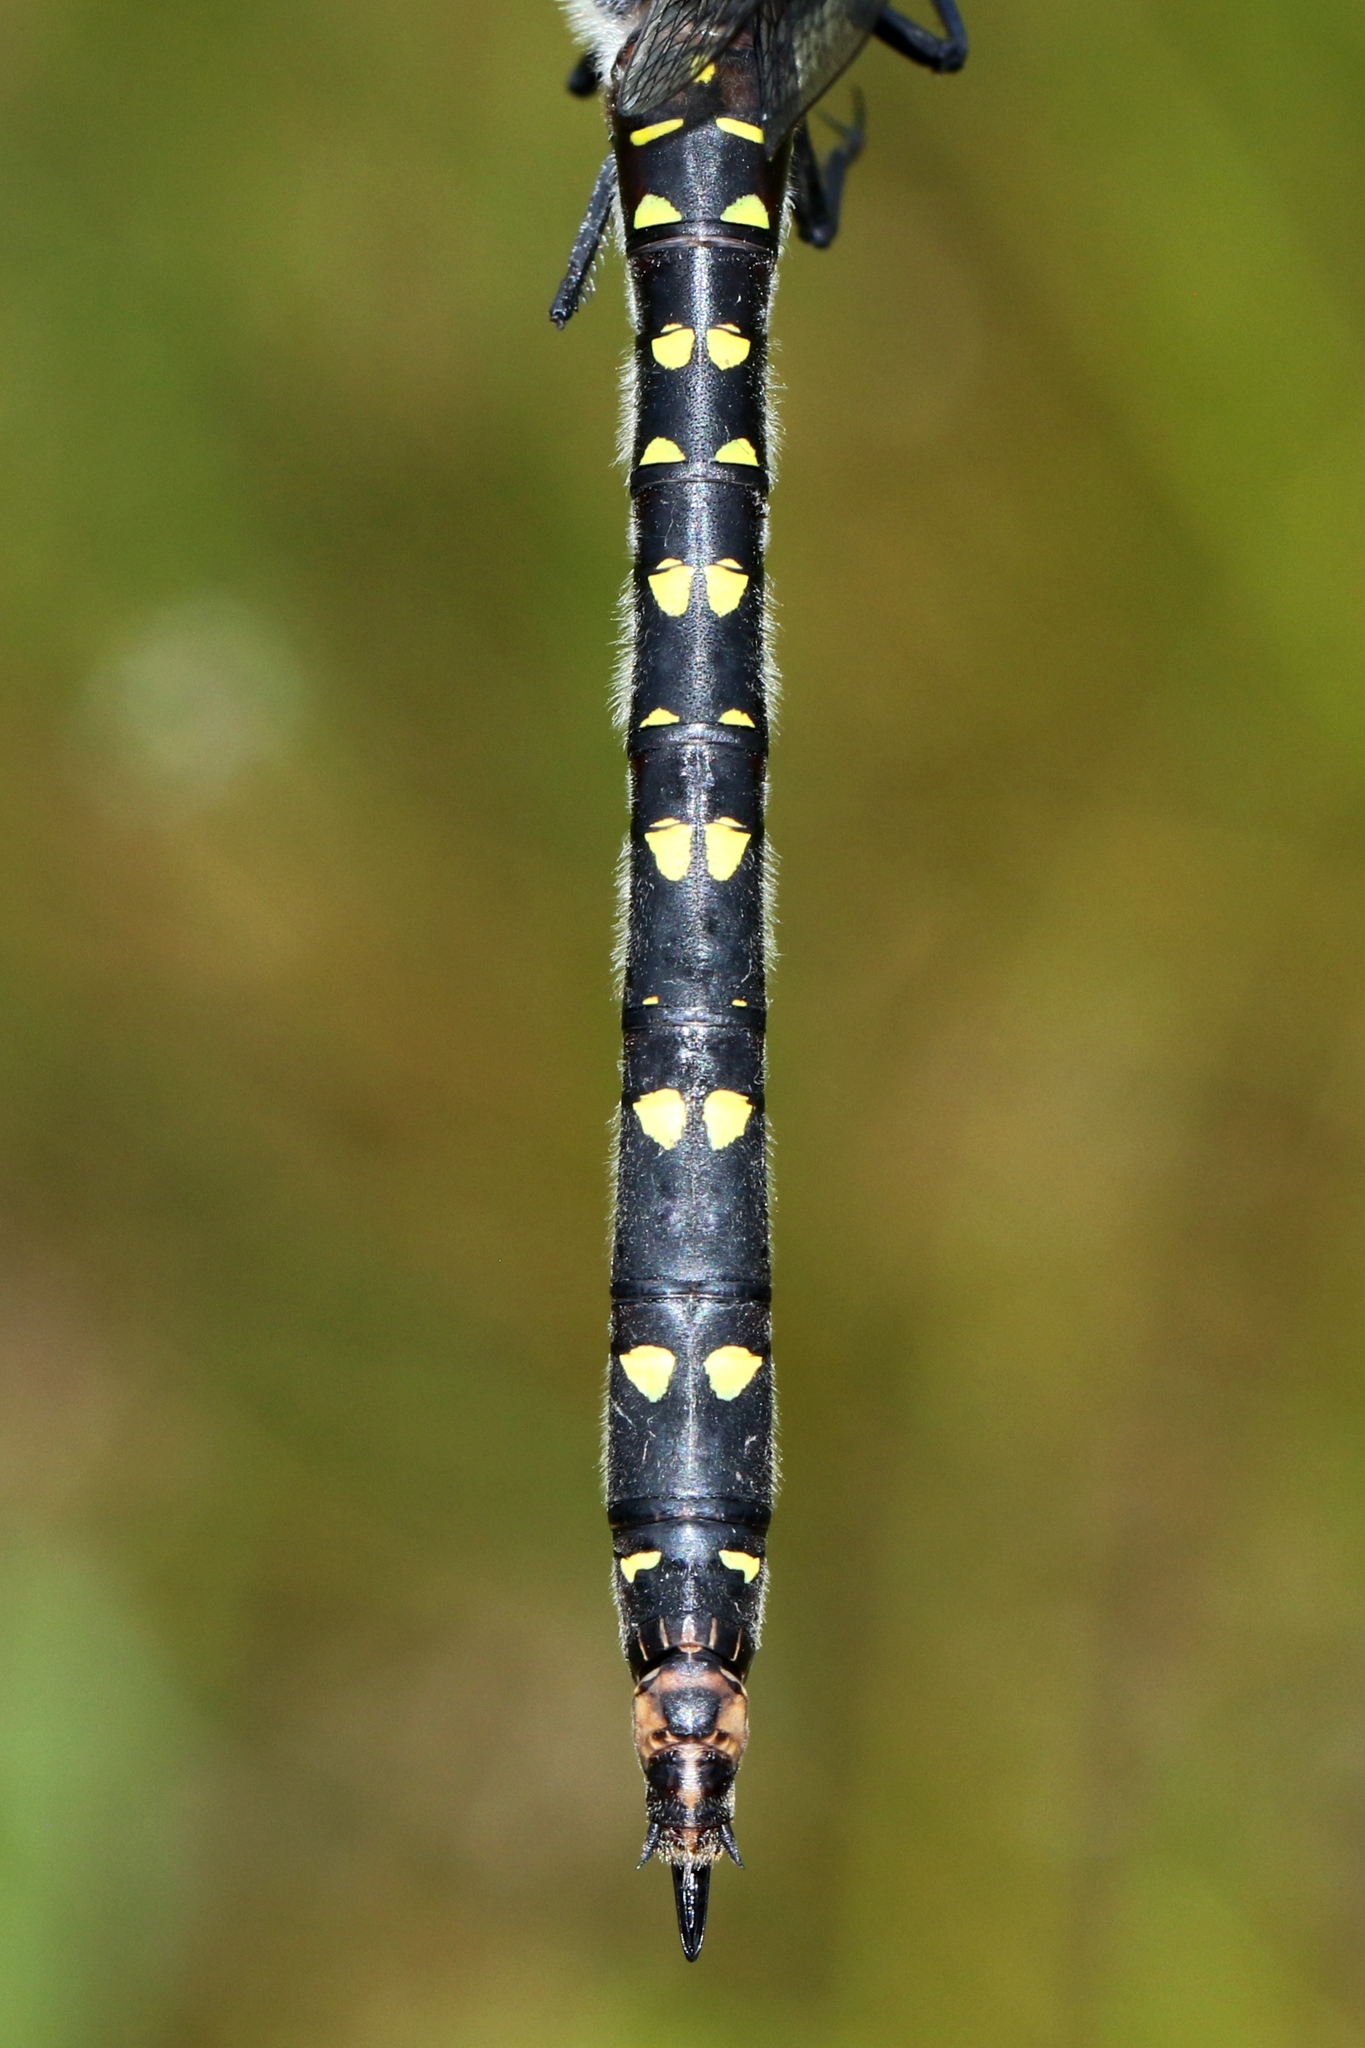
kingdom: Animalia
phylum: Arthropoda
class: Insecta
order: Odonata
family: Cordulegastridae
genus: Cordulegaster
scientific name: Cordulegaster maculata
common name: Twin-spotted spiketail
